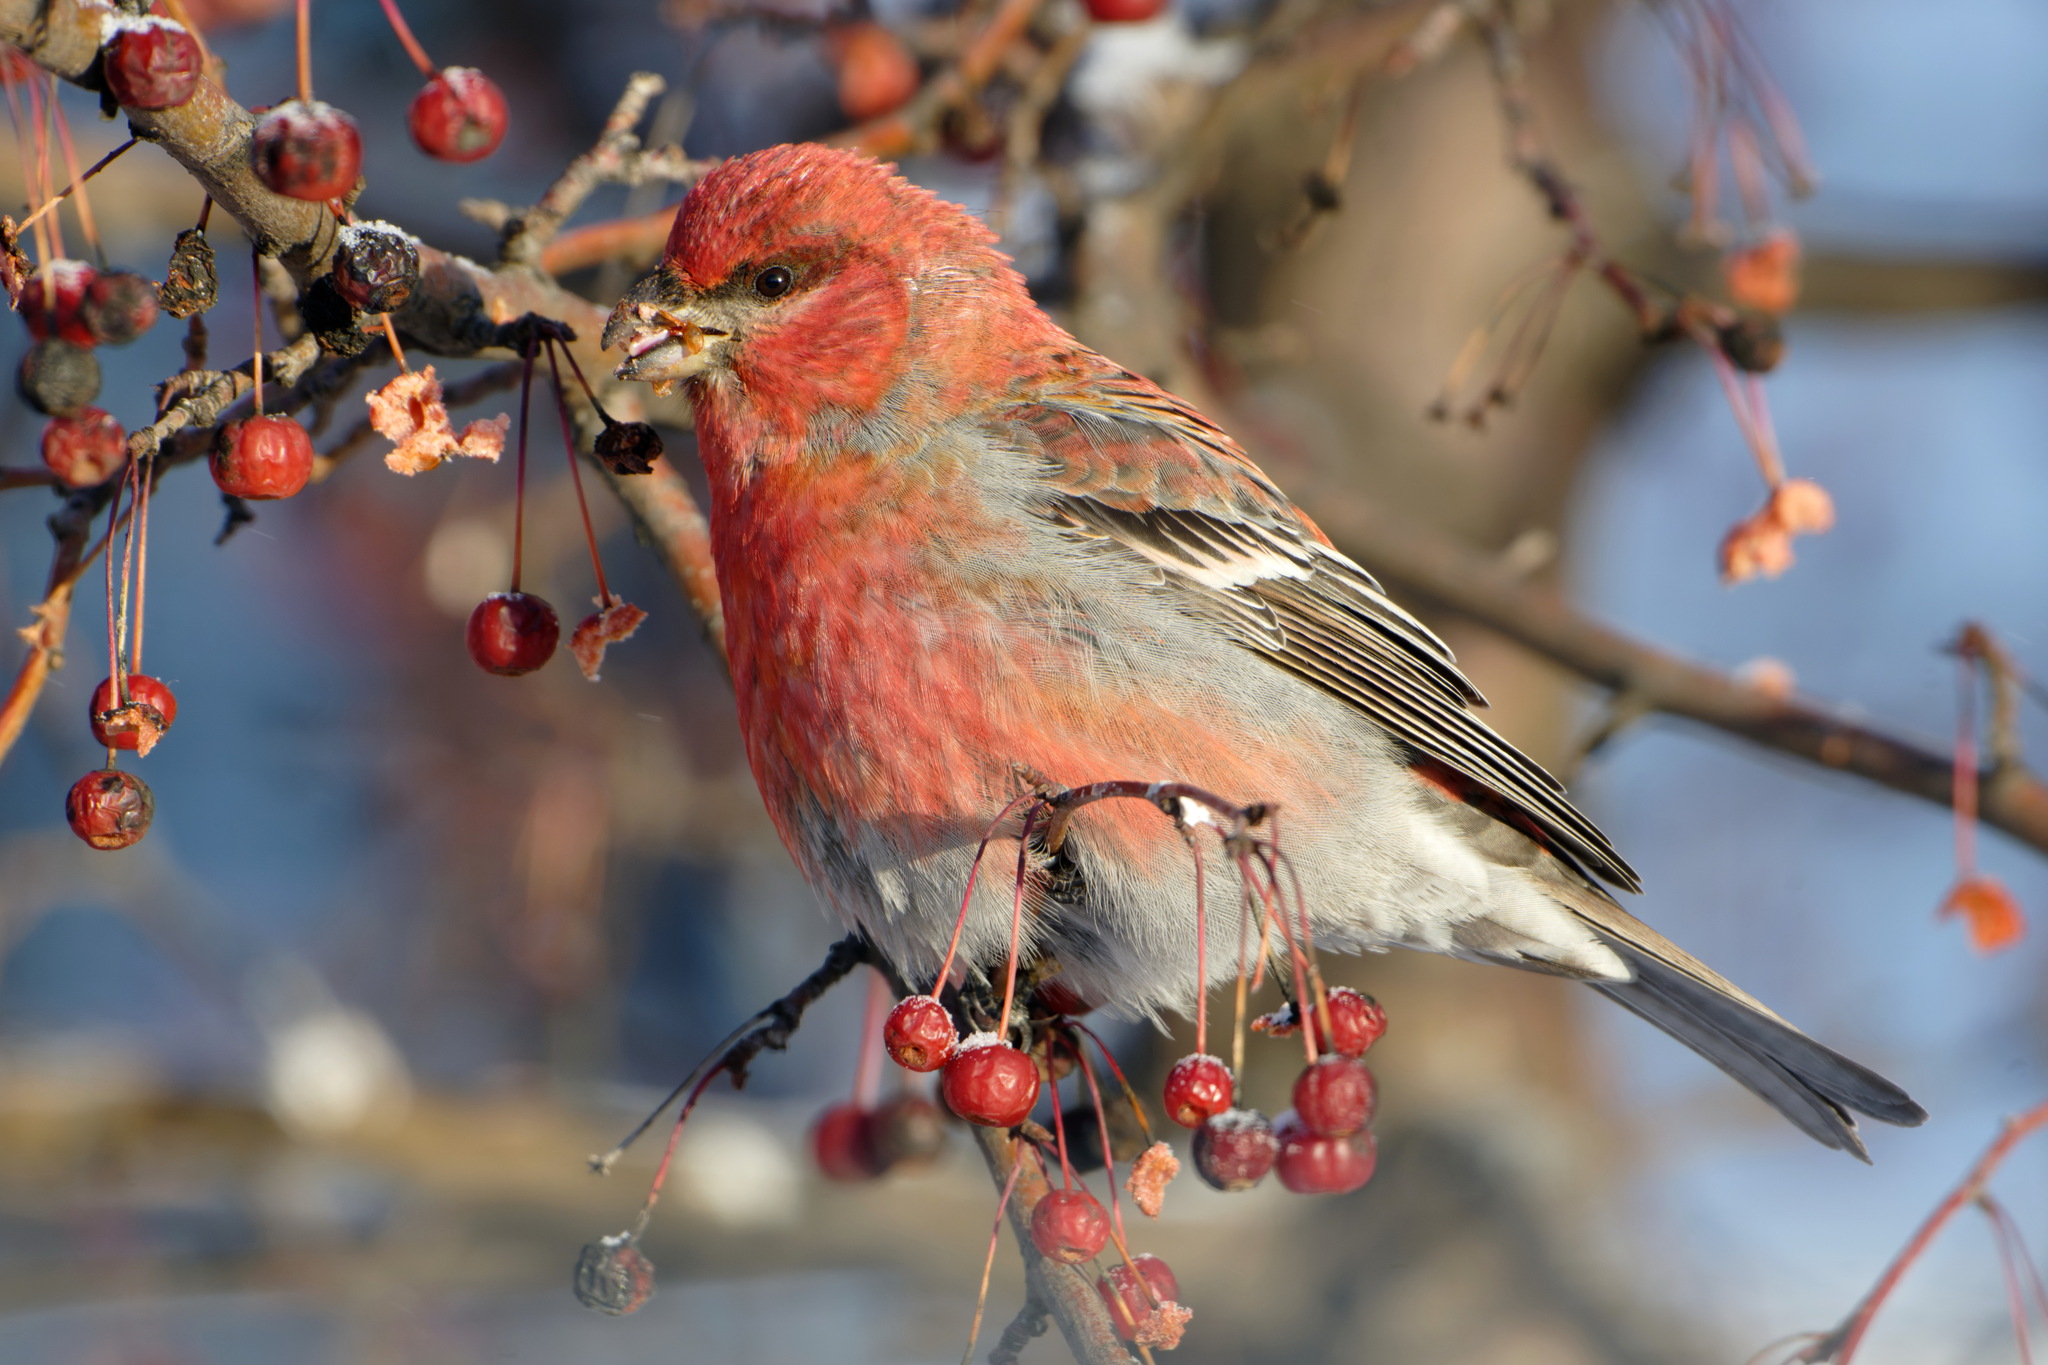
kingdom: Animalia
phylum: Chordata
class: Aves
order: Passeriformes
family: Fringillidae
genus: Pinicola
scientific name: Pinicola enucleator
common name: Pine grosbeak
